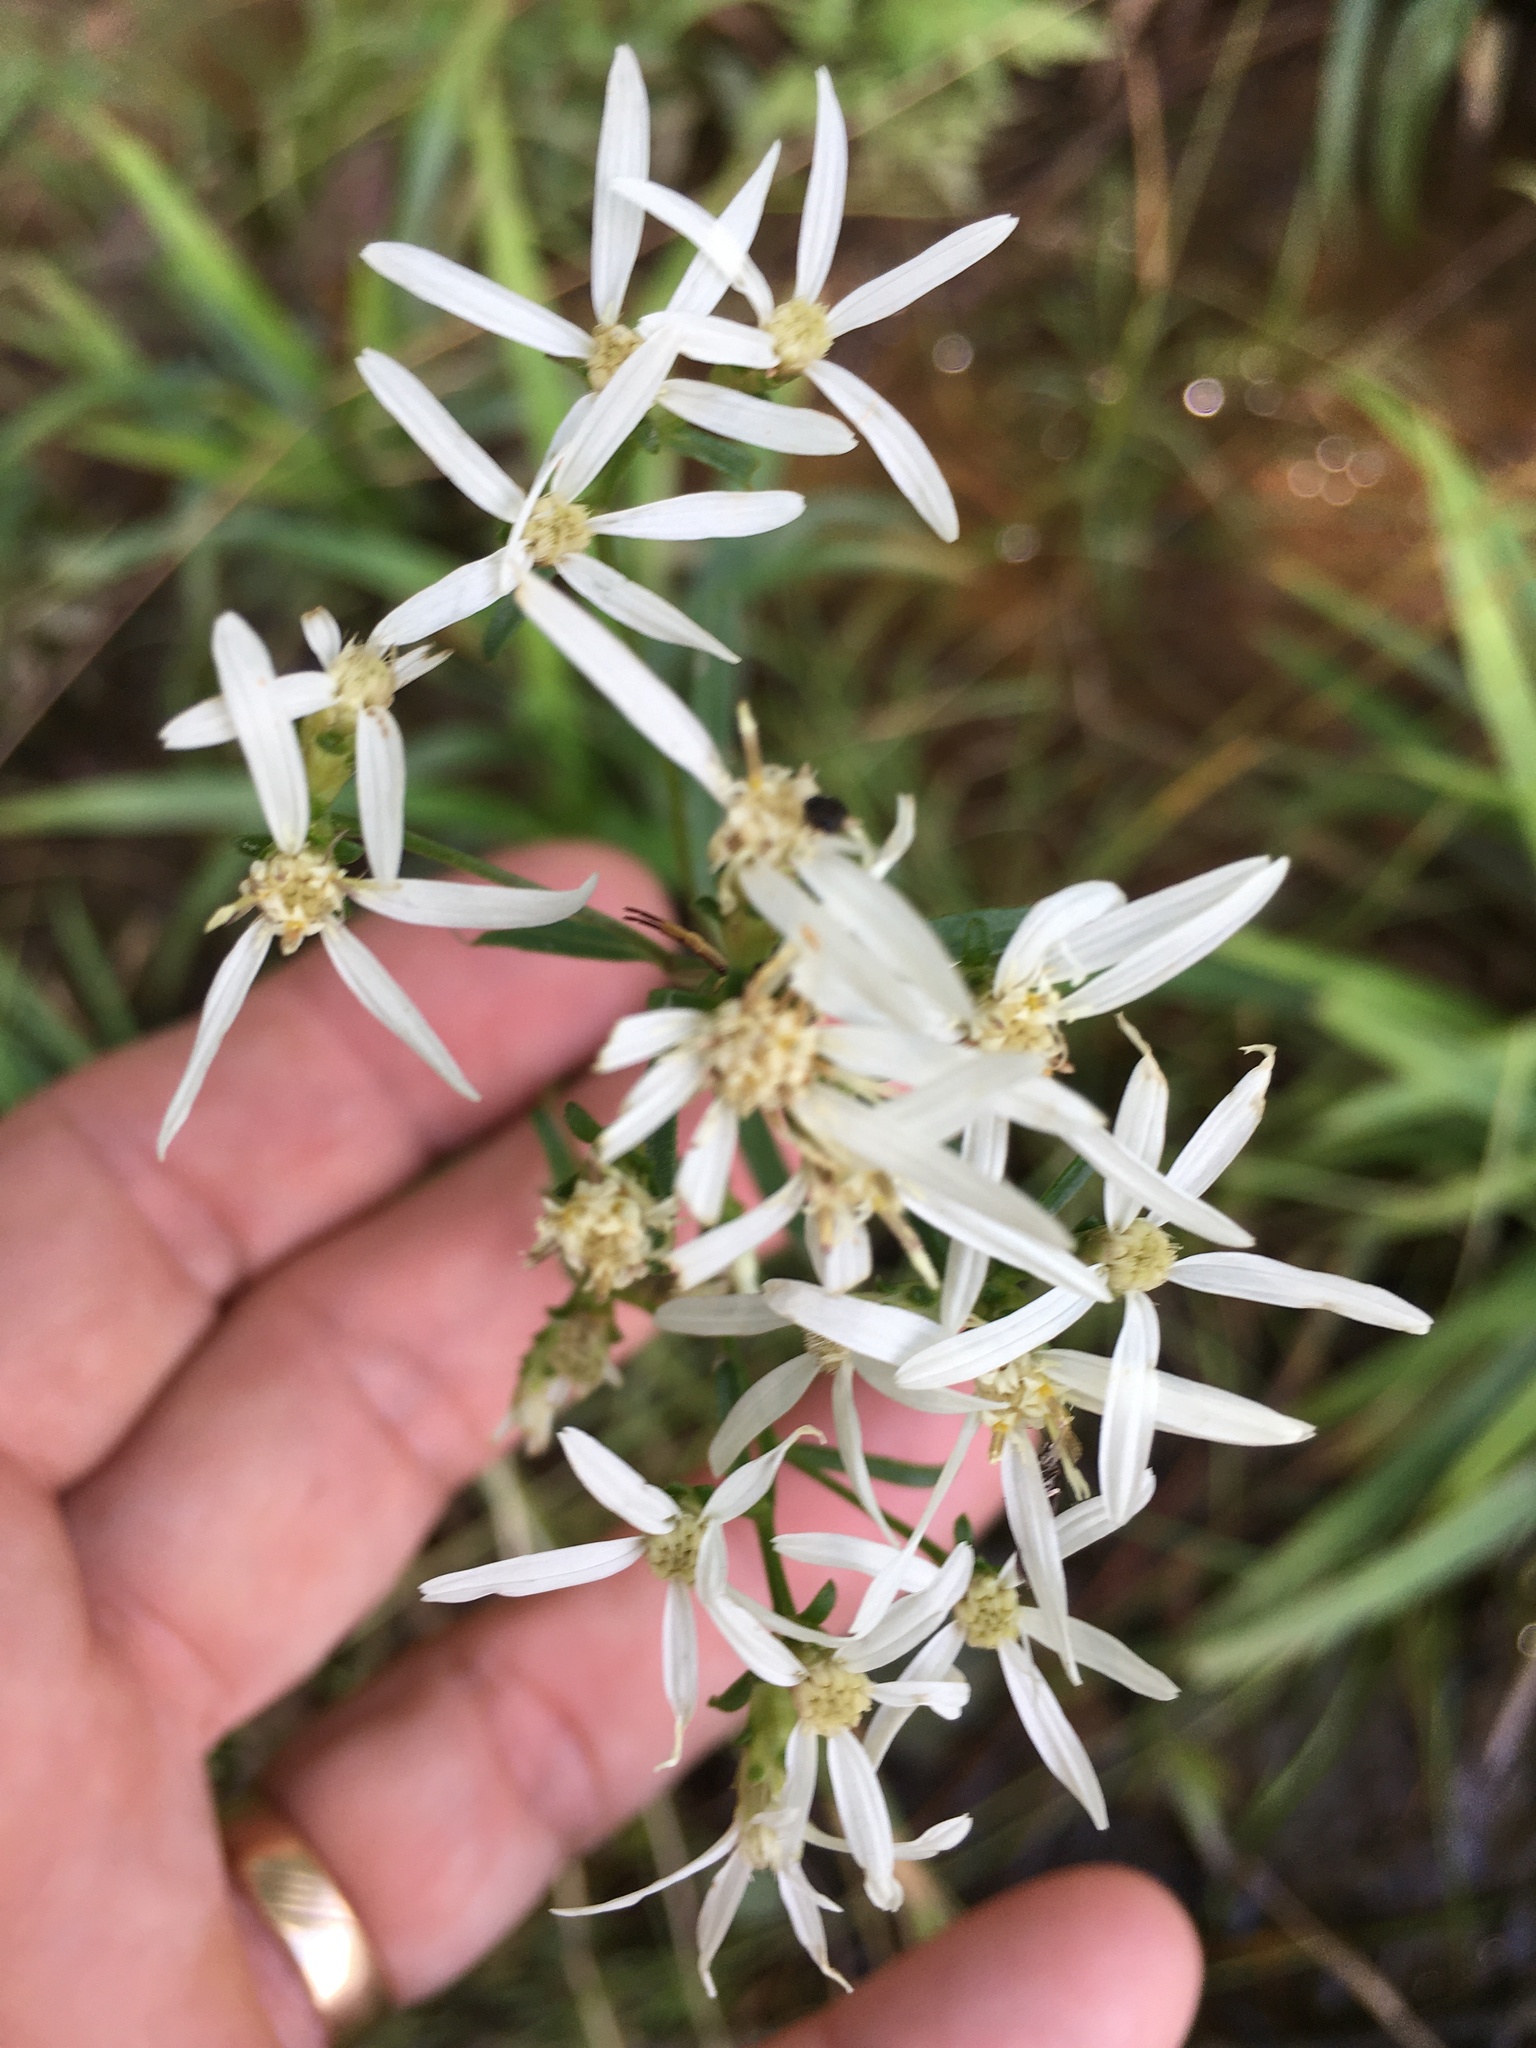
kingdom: Plantae
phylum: Tracheophyta
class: Magnoliopsida
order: Asterales
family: Asteraceae
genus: Sericocarpus
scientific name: Sericocarpus linifolius
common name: Narrow-leaf aster
